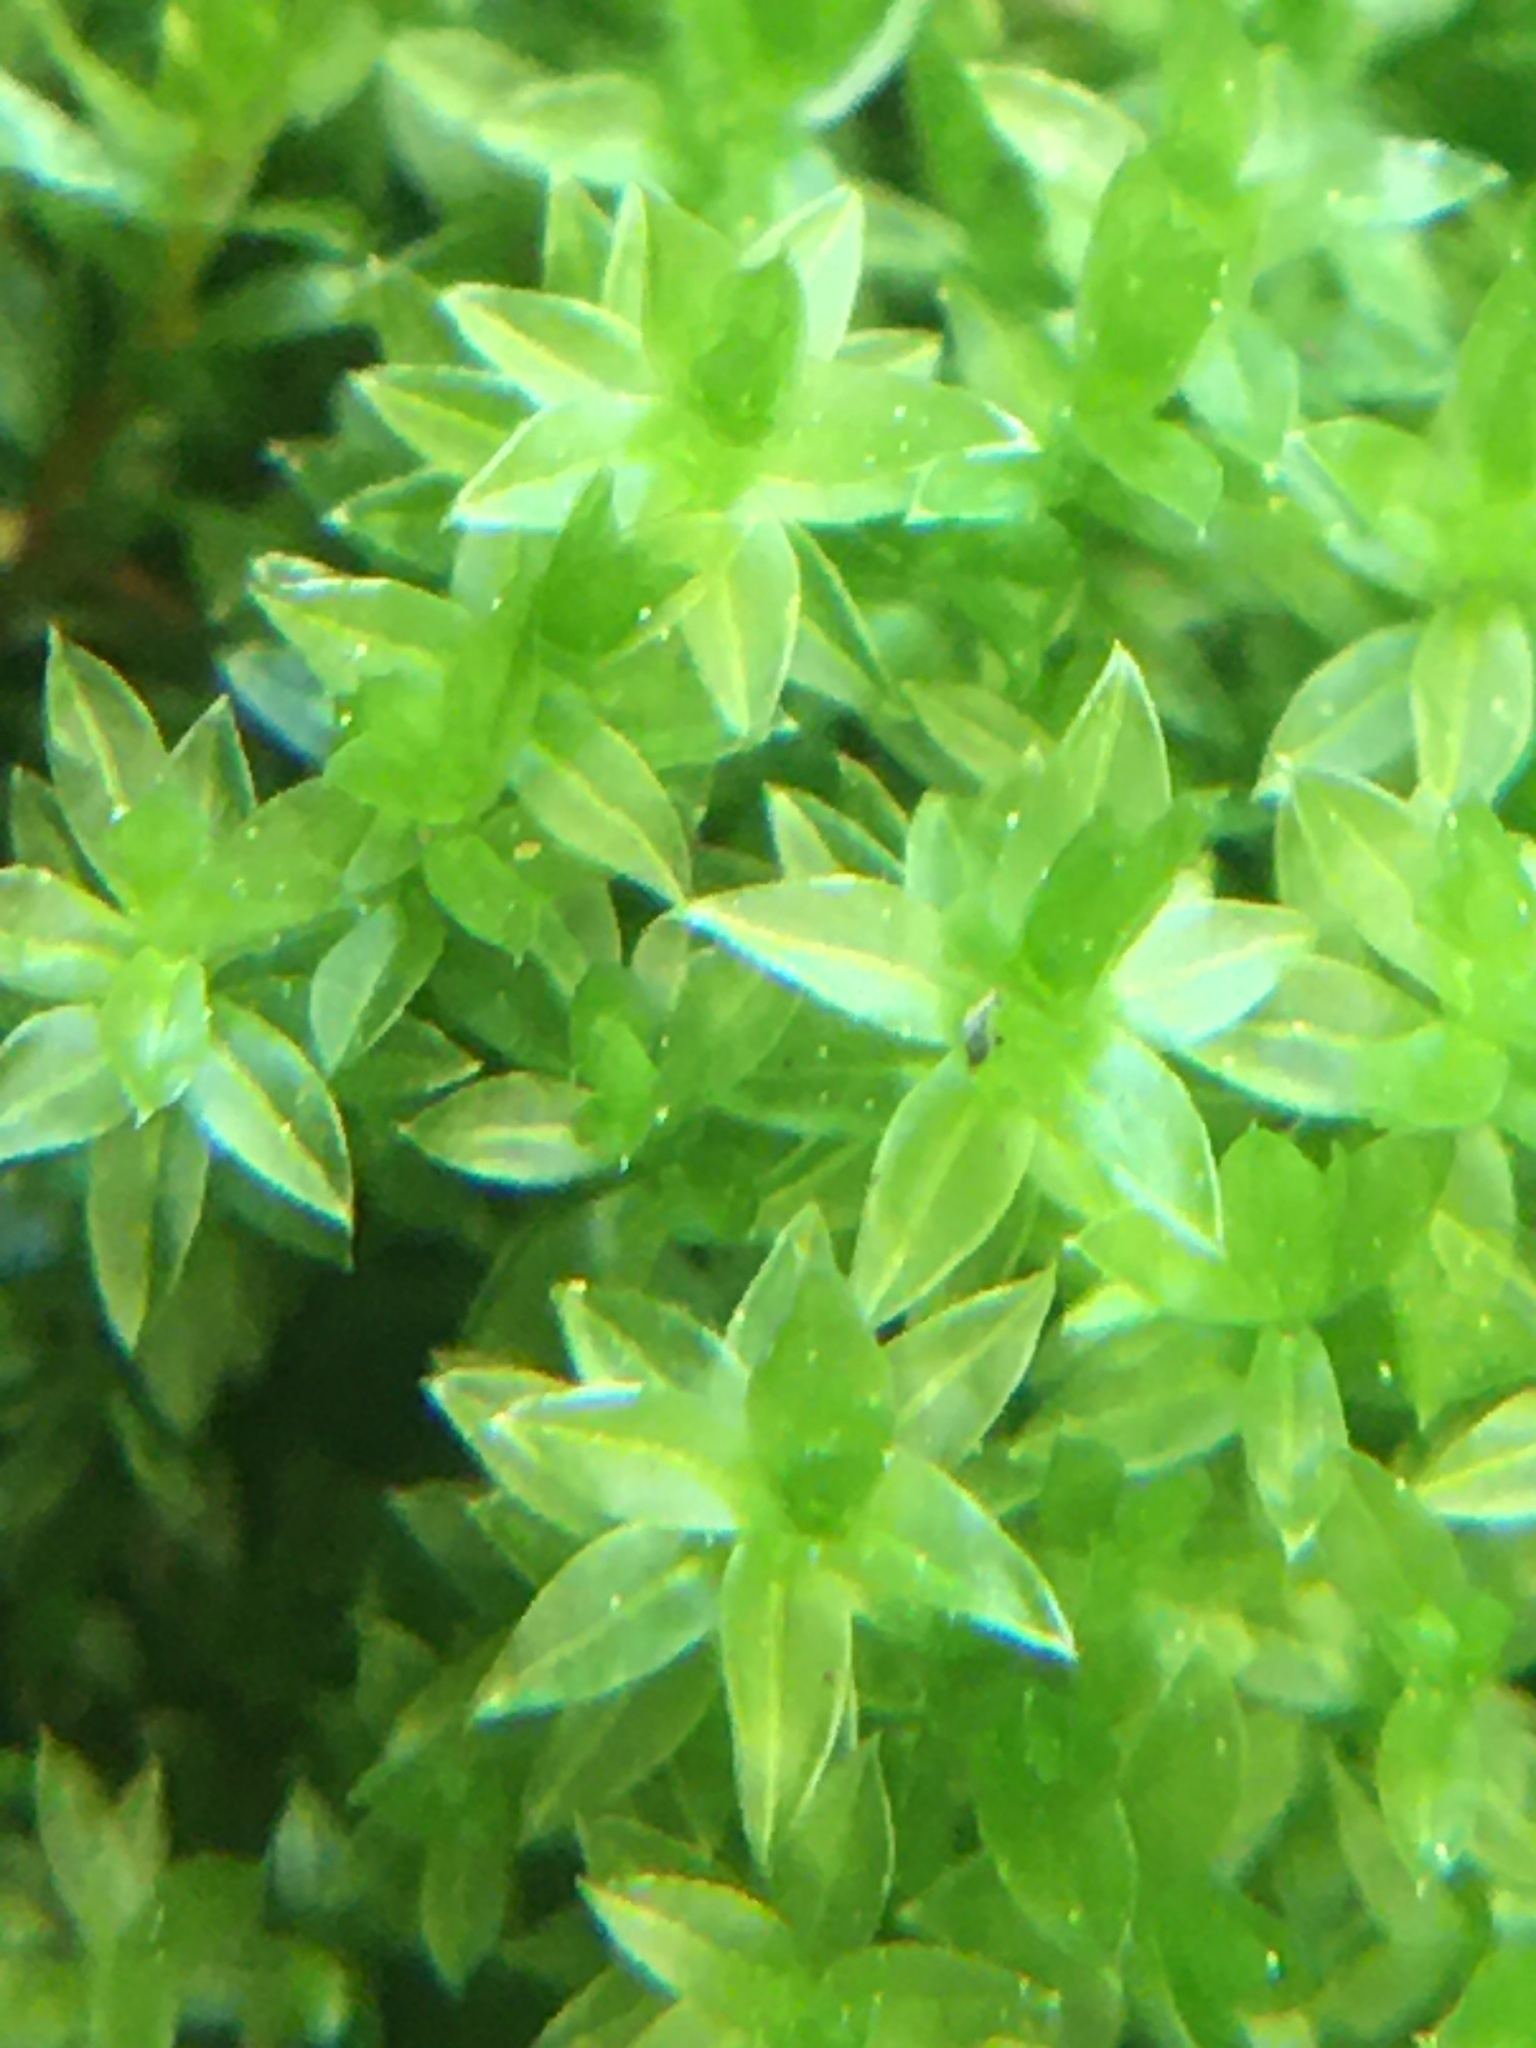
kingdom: Plantae
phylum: Bryophyta
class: Bryopsida
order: Bryales
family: Mniaceae
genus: Mnium
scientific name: Mnium stellare
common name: Star leafy moss
